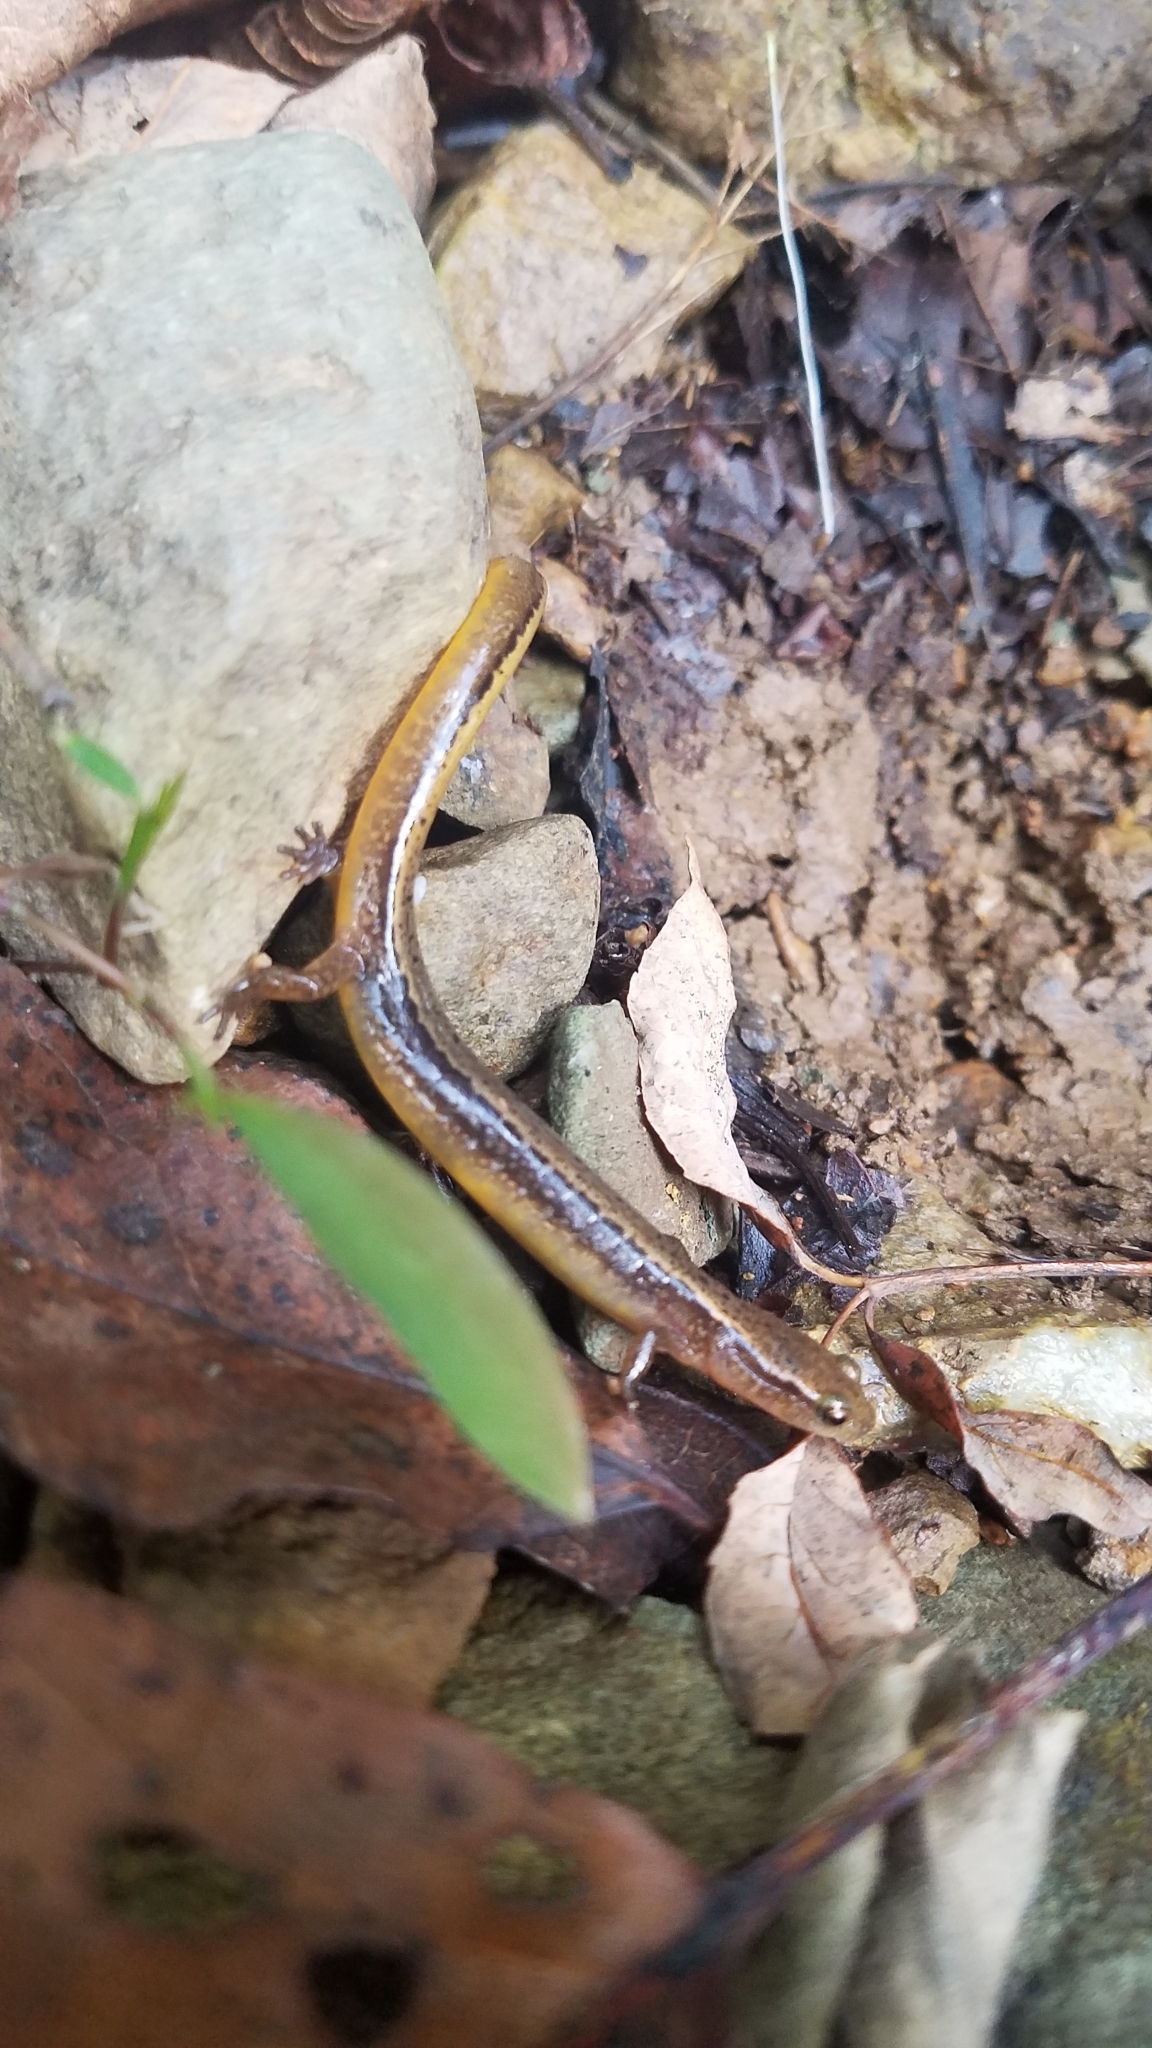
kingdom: Animalia
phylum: Chordata
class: Amphibia
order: Caudata
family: Plethodontidae
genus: Eurycea
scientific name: Eurycea bislineata
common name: Northern two-lined salamander
